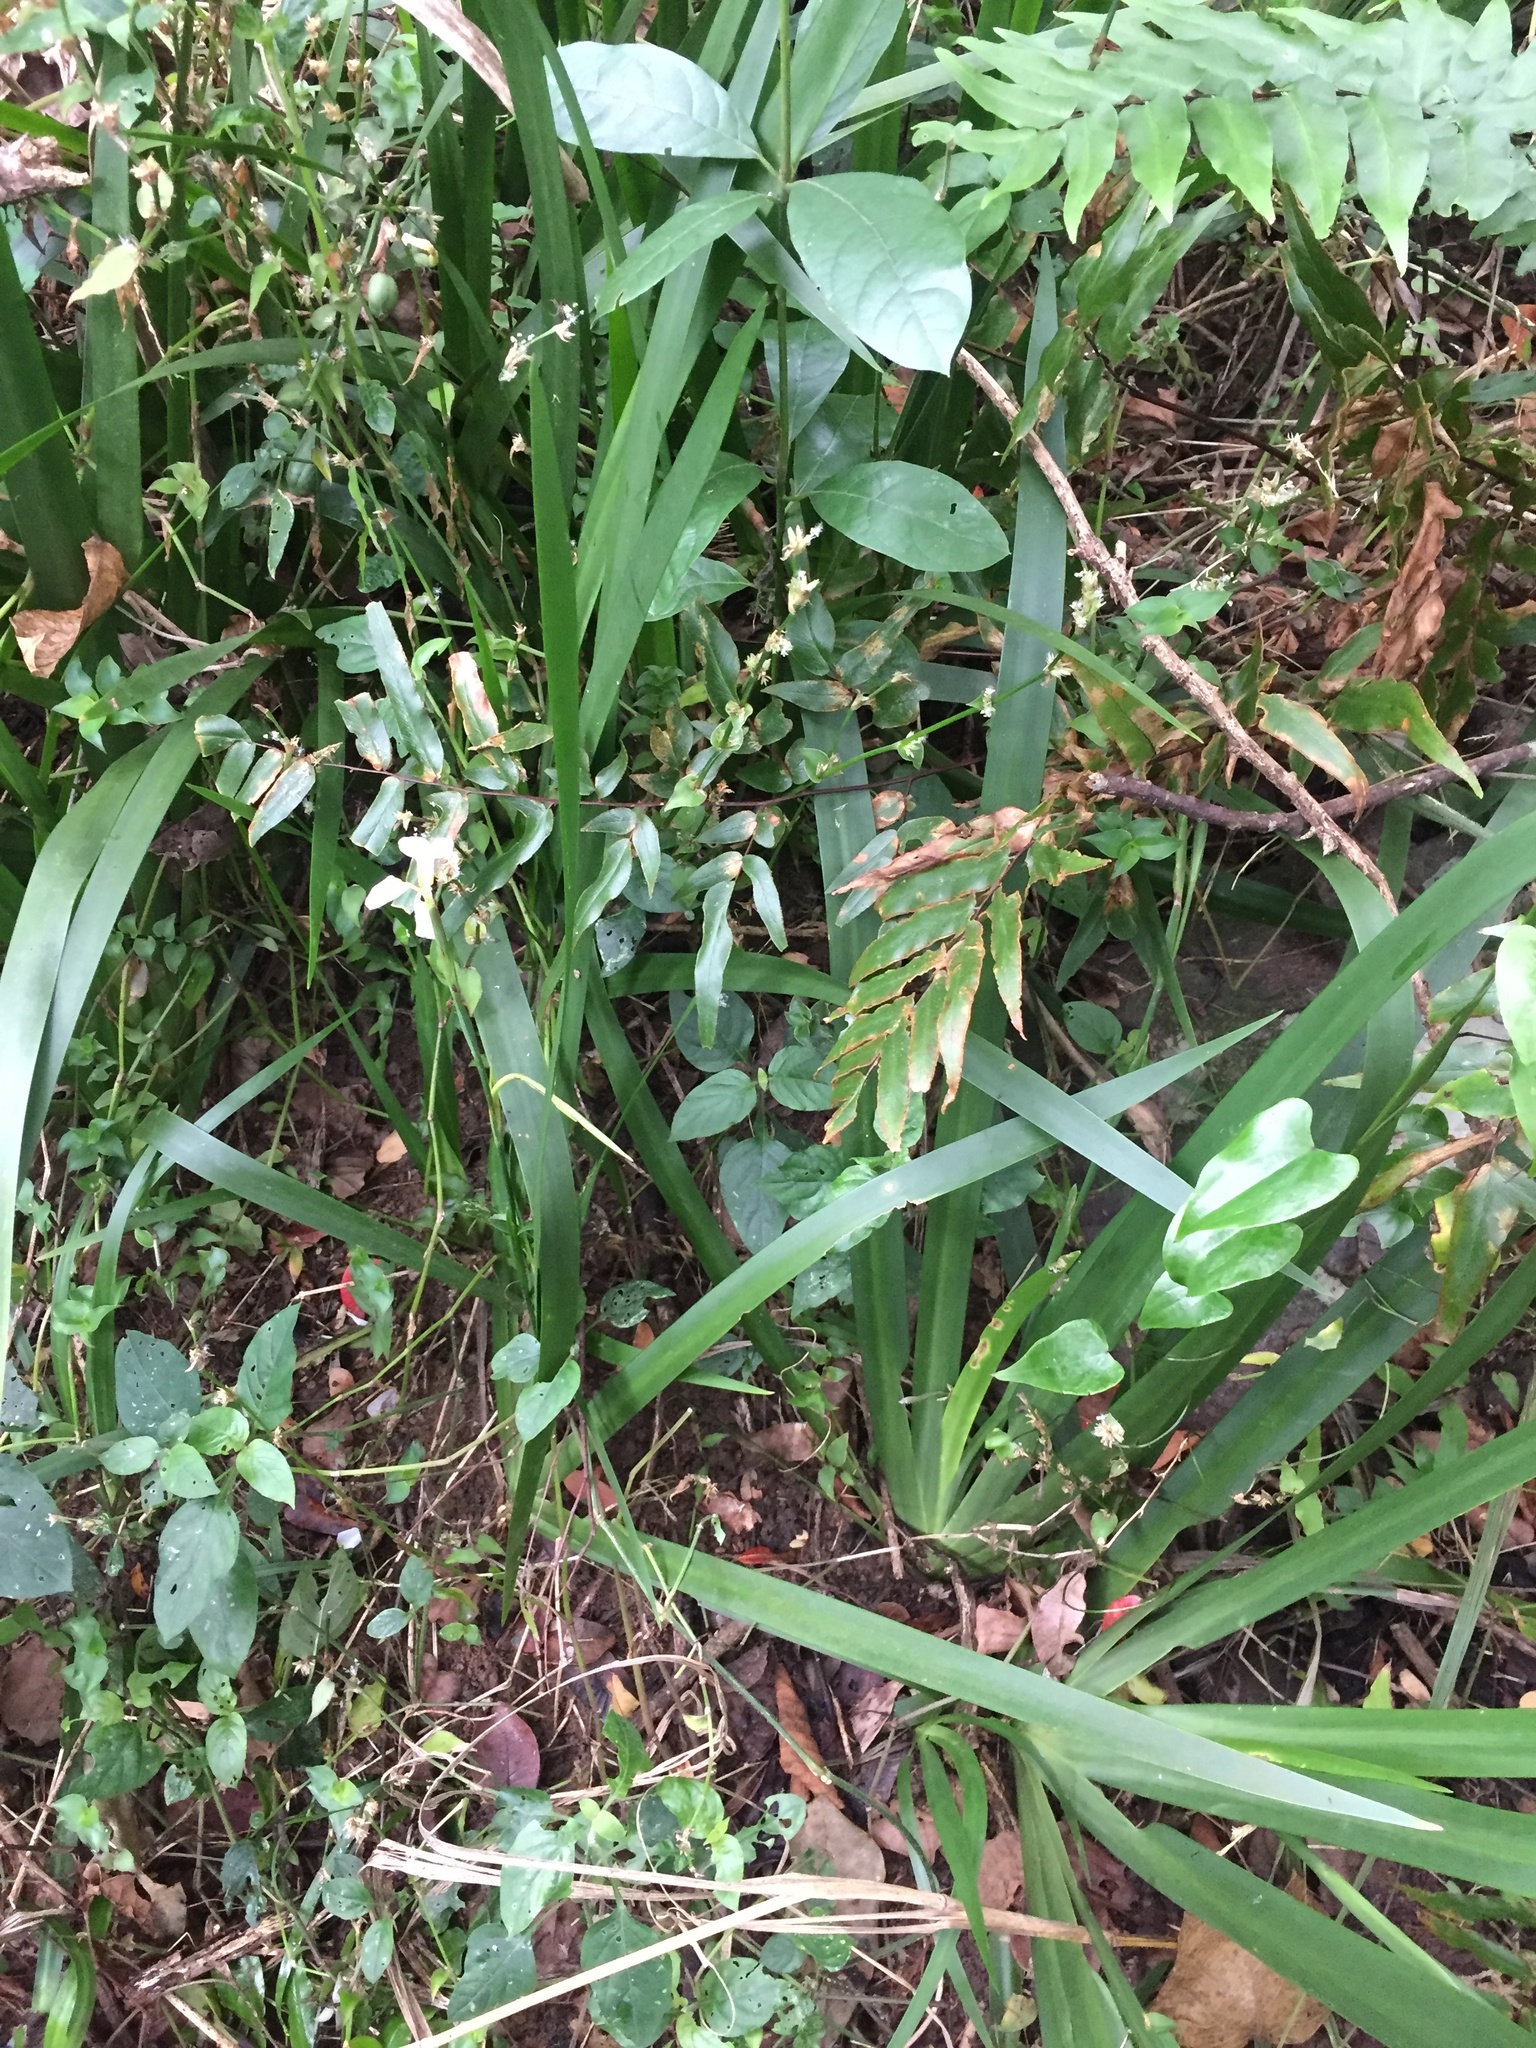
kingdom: Plantae
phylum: Tracheophyta
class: Liliopsida
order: Asparagales
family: Iridaceae
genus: Dietes
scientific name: Dietes iridioides
